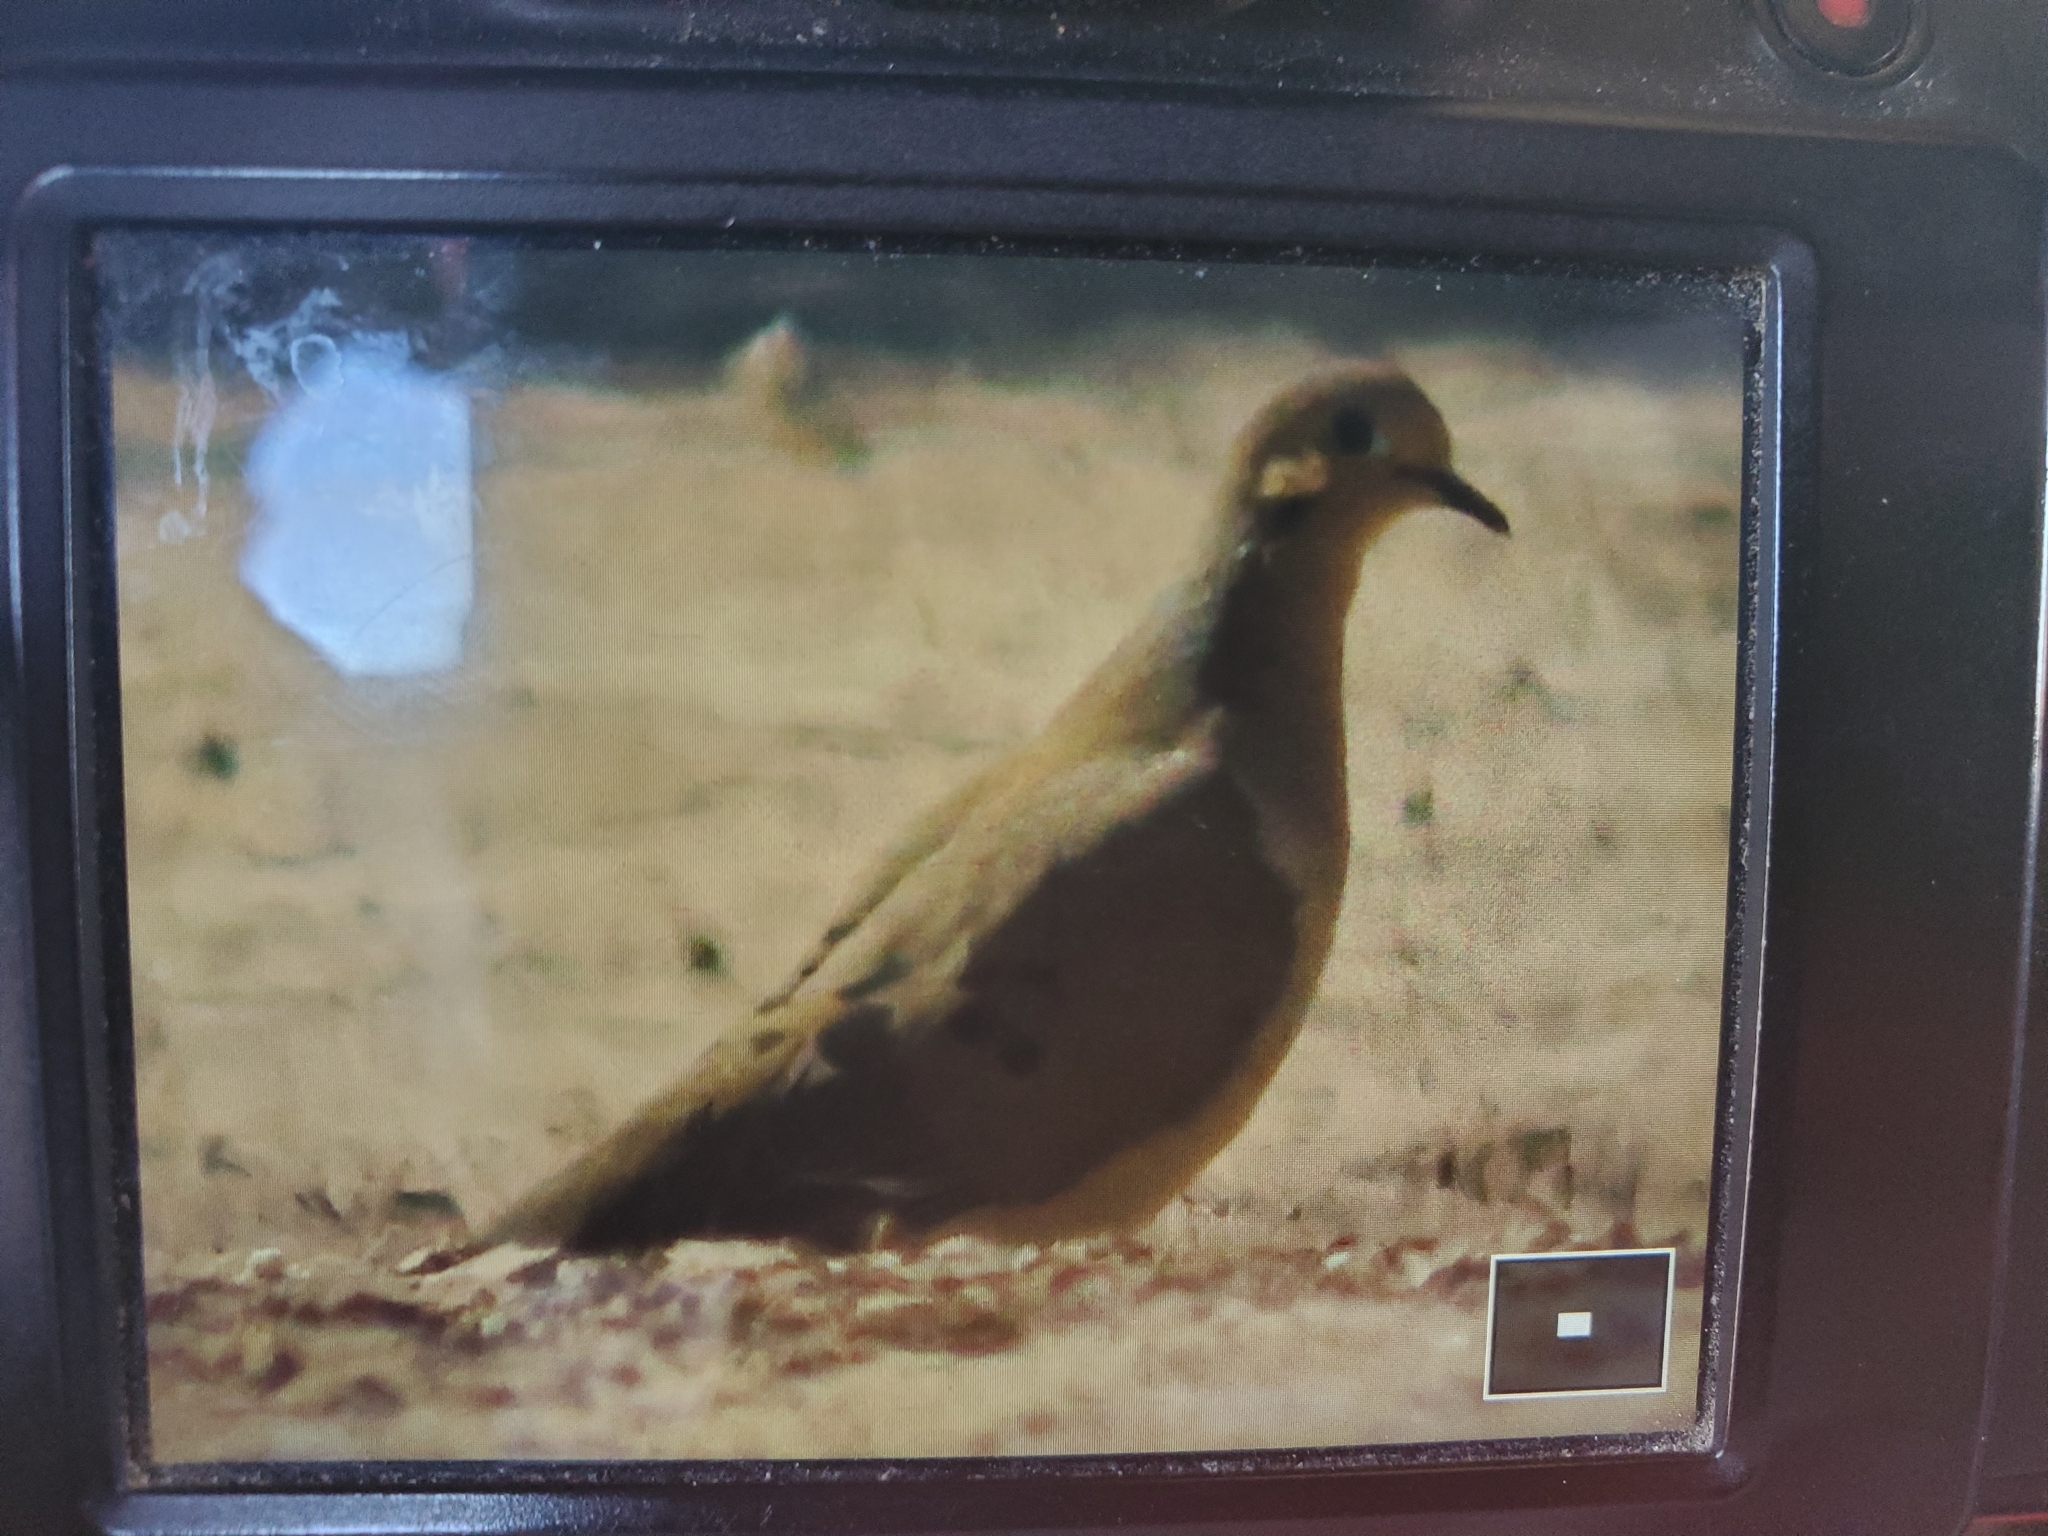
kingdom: Animalia
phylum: Chordata
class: Aves
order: Columbiformes
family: Columbidae
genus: Zenaida
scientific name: Zenaida macroura
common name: Mourning dove
